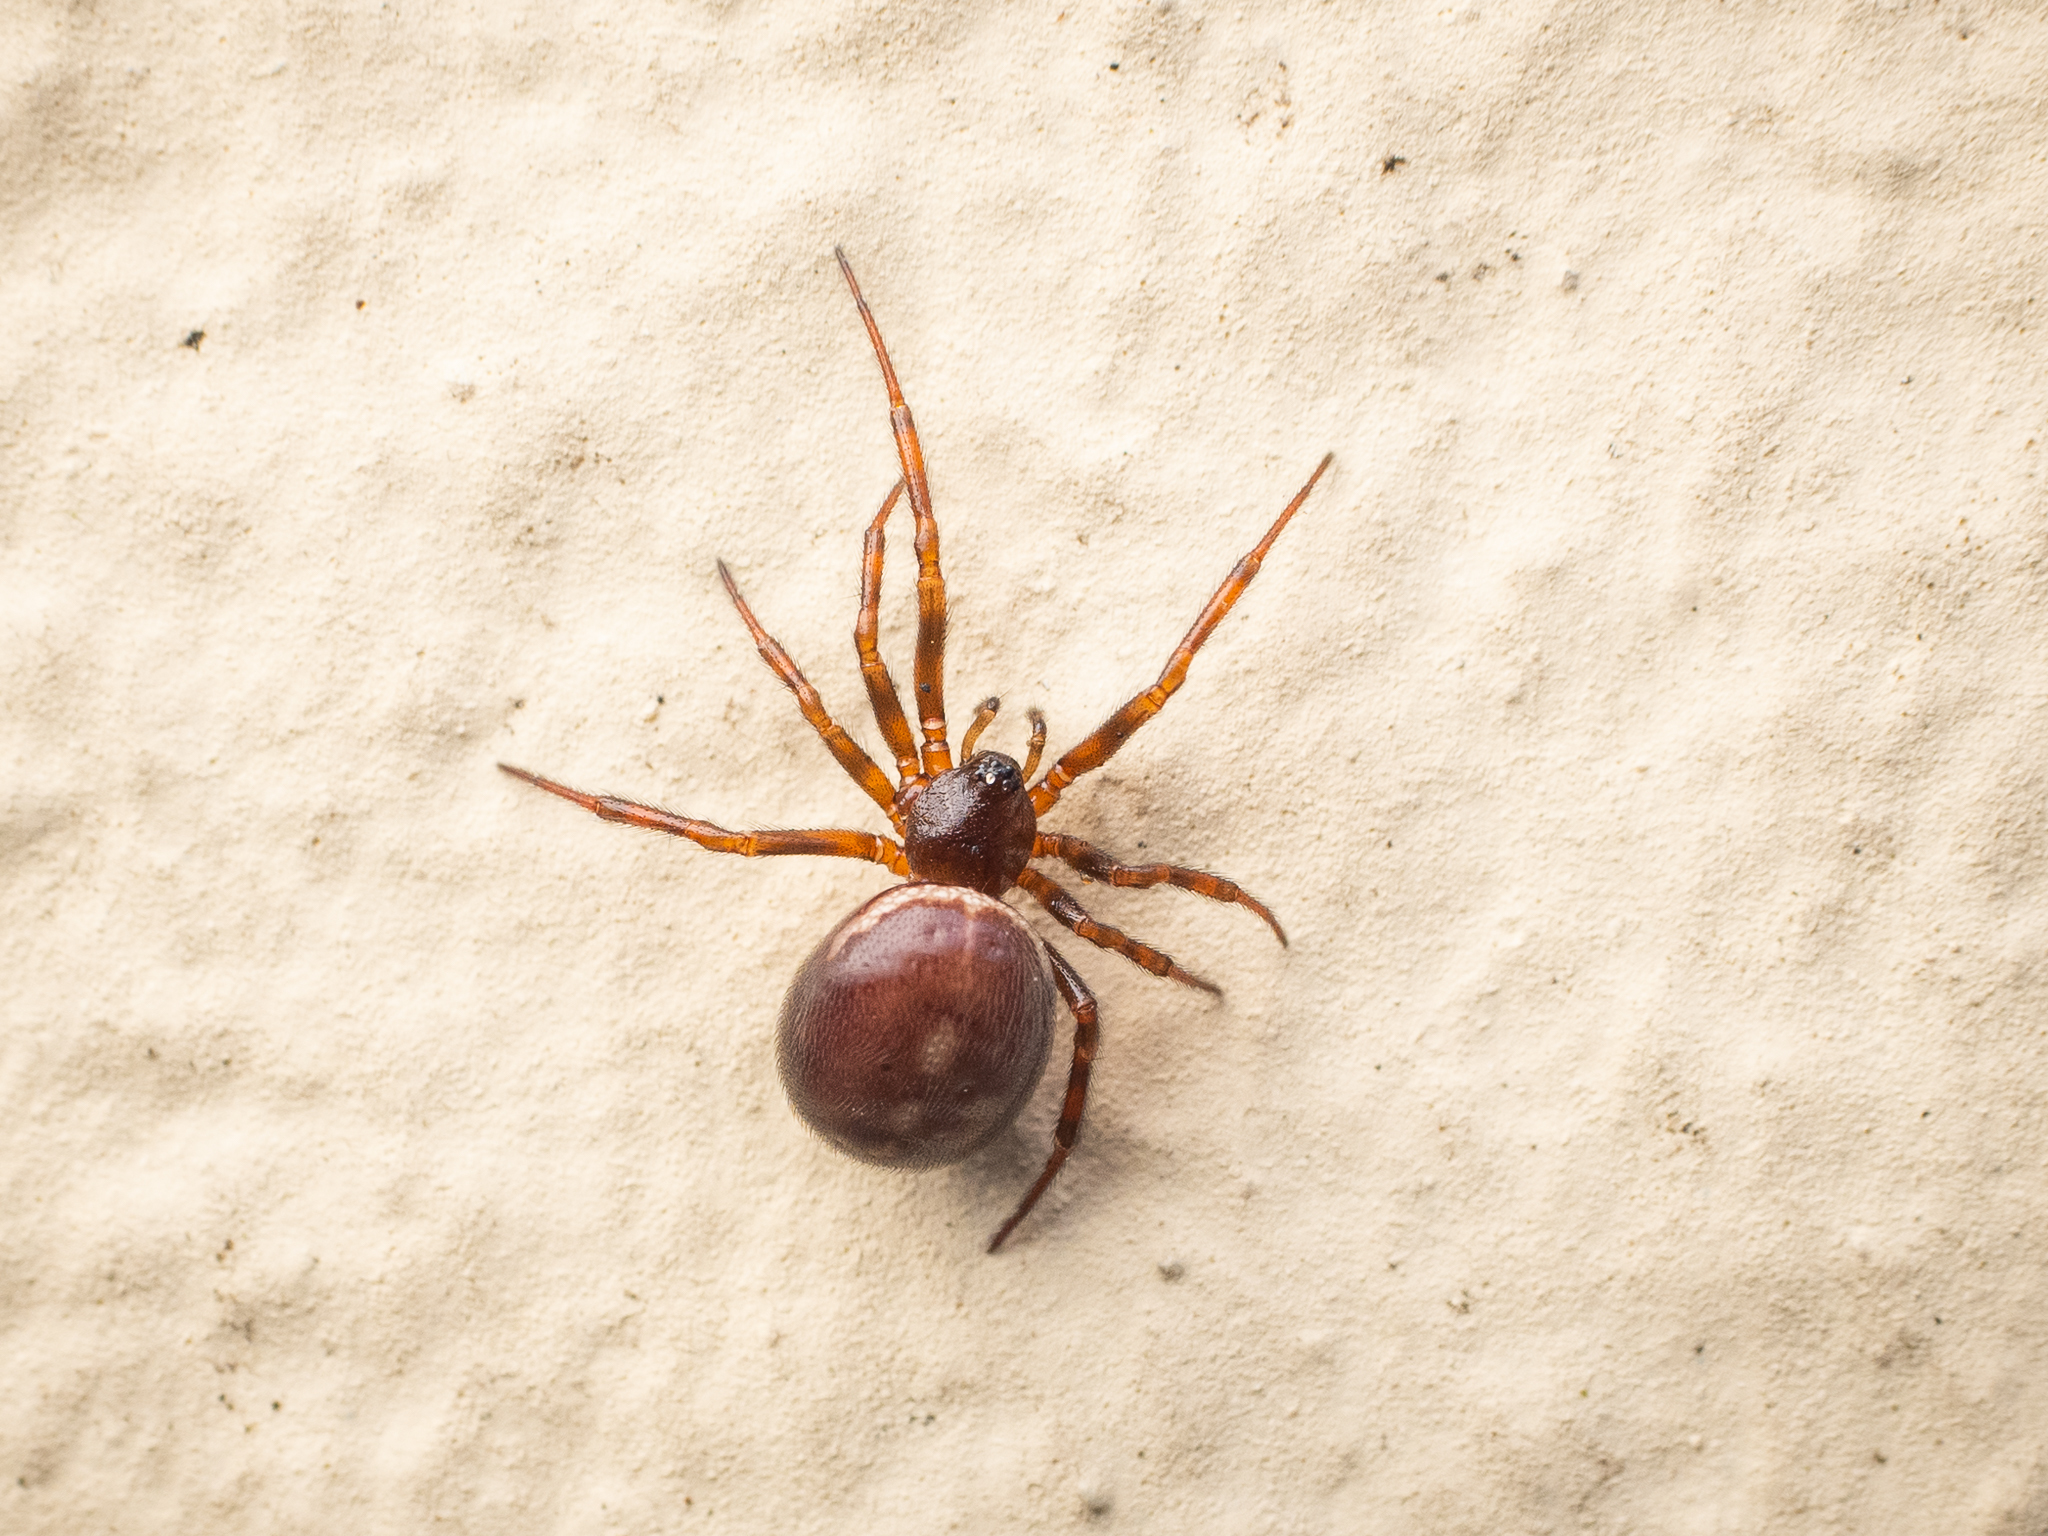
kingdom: Animalia
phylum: Arthropoda
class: Arachnida
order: Araneae
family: Theridiidae
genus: Steatoda
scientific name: Steatoda bipunctata
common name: False widow
